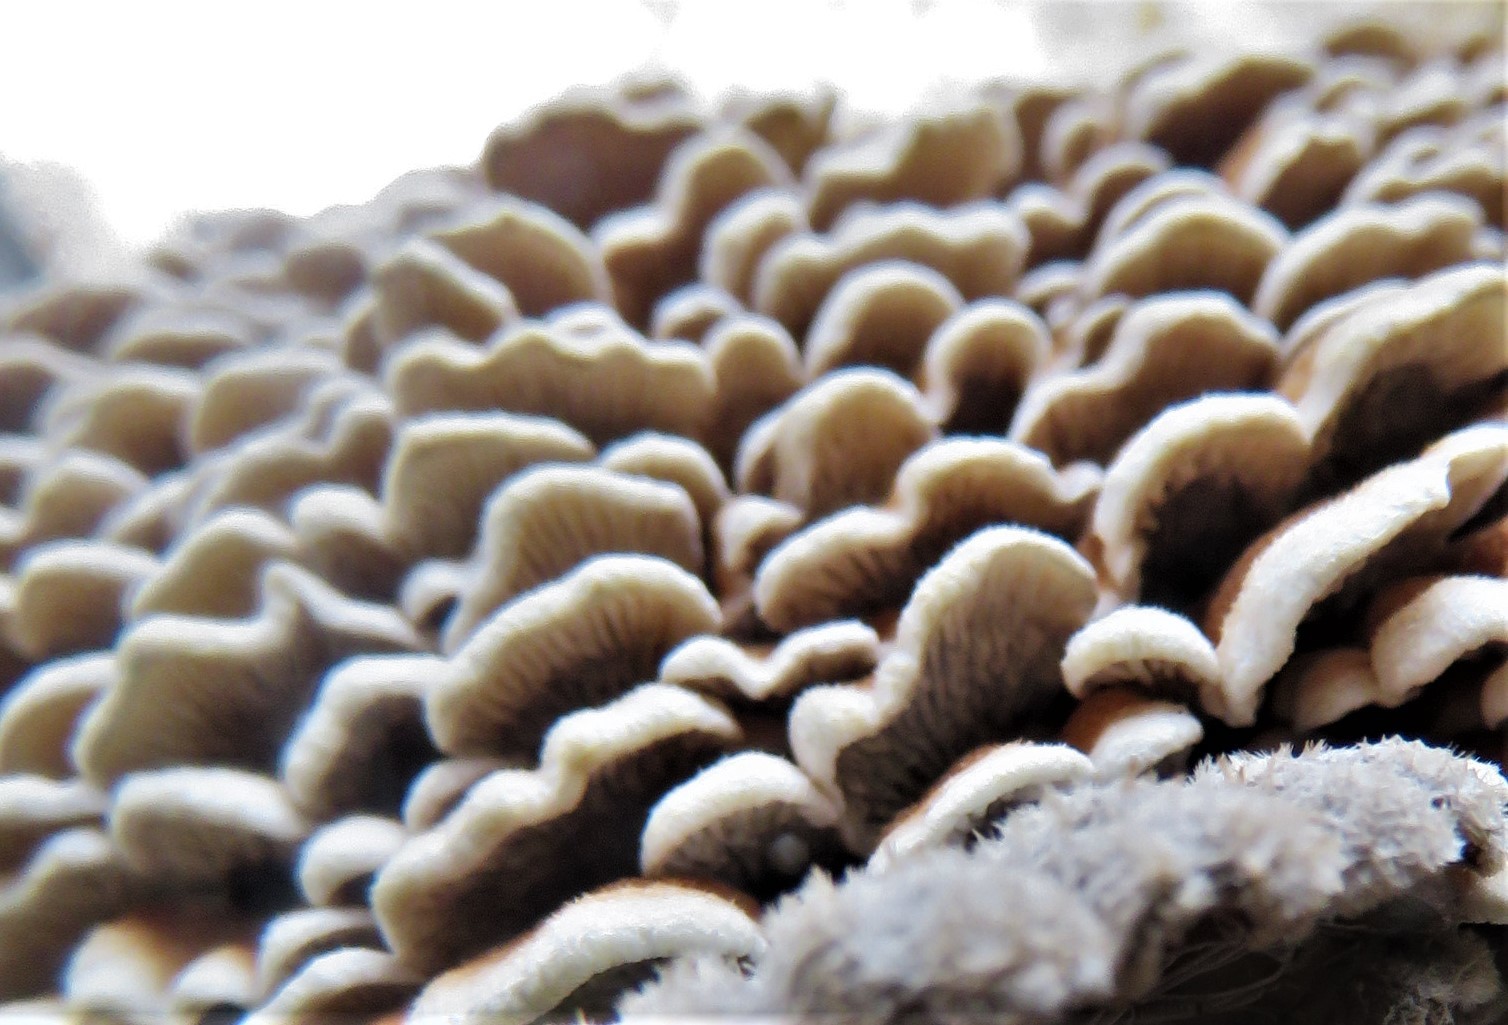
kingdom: Fungi
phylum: Basidiomycota
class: Agaricomycetes
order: Amylocorticiales
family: Amylocorticiaceae
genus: Plicaturopsis
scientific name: Plicaturopsis crispa
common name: Crimped gill
